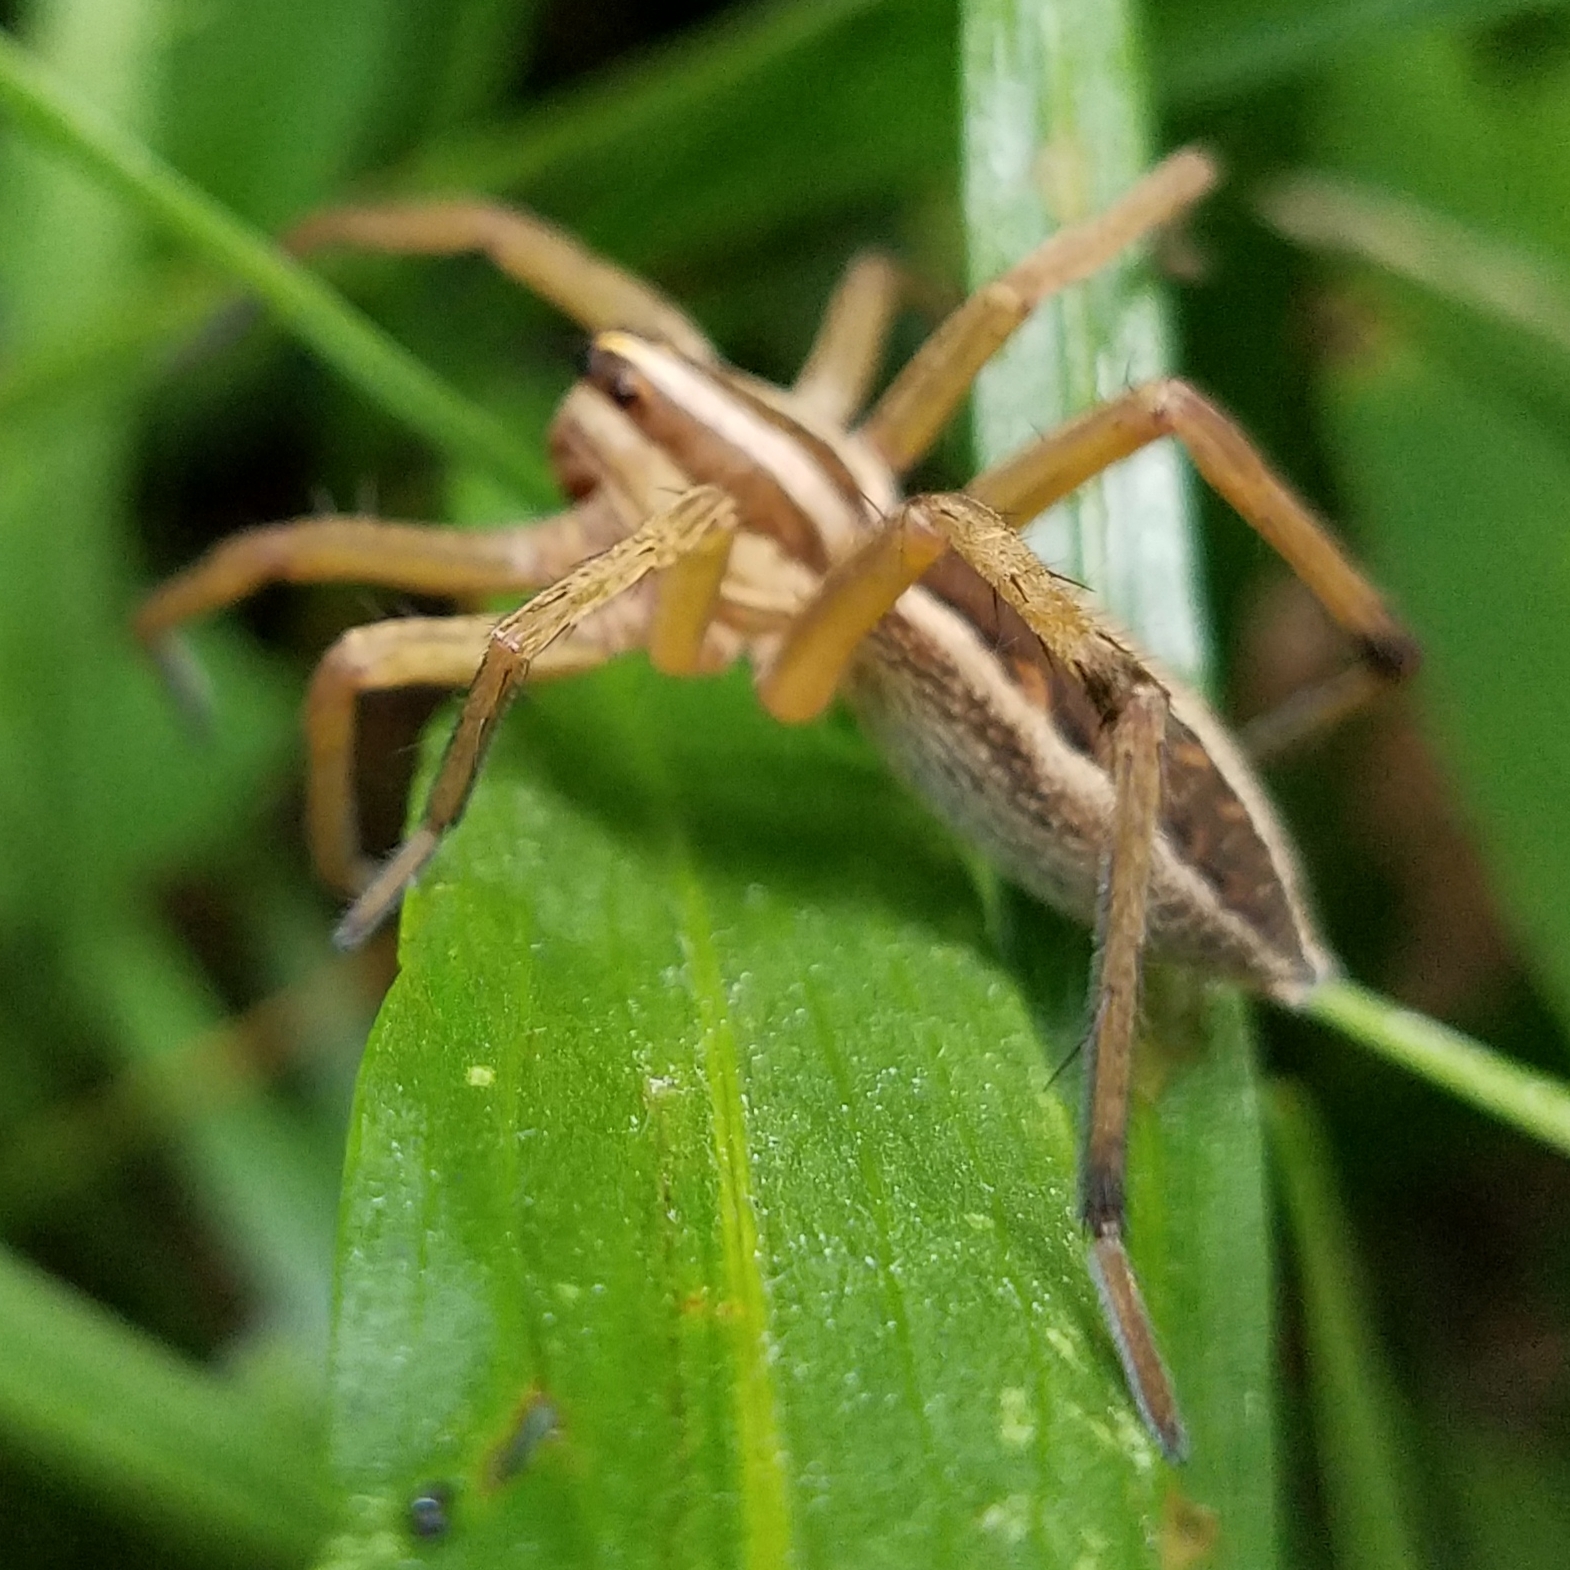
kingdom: Animalia
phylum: Arthropoda
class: Arachnida
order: Araneae
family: Lycosidae
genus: Rabidosa
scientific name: Rabidosa rabida
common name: Rabid wolf spider
